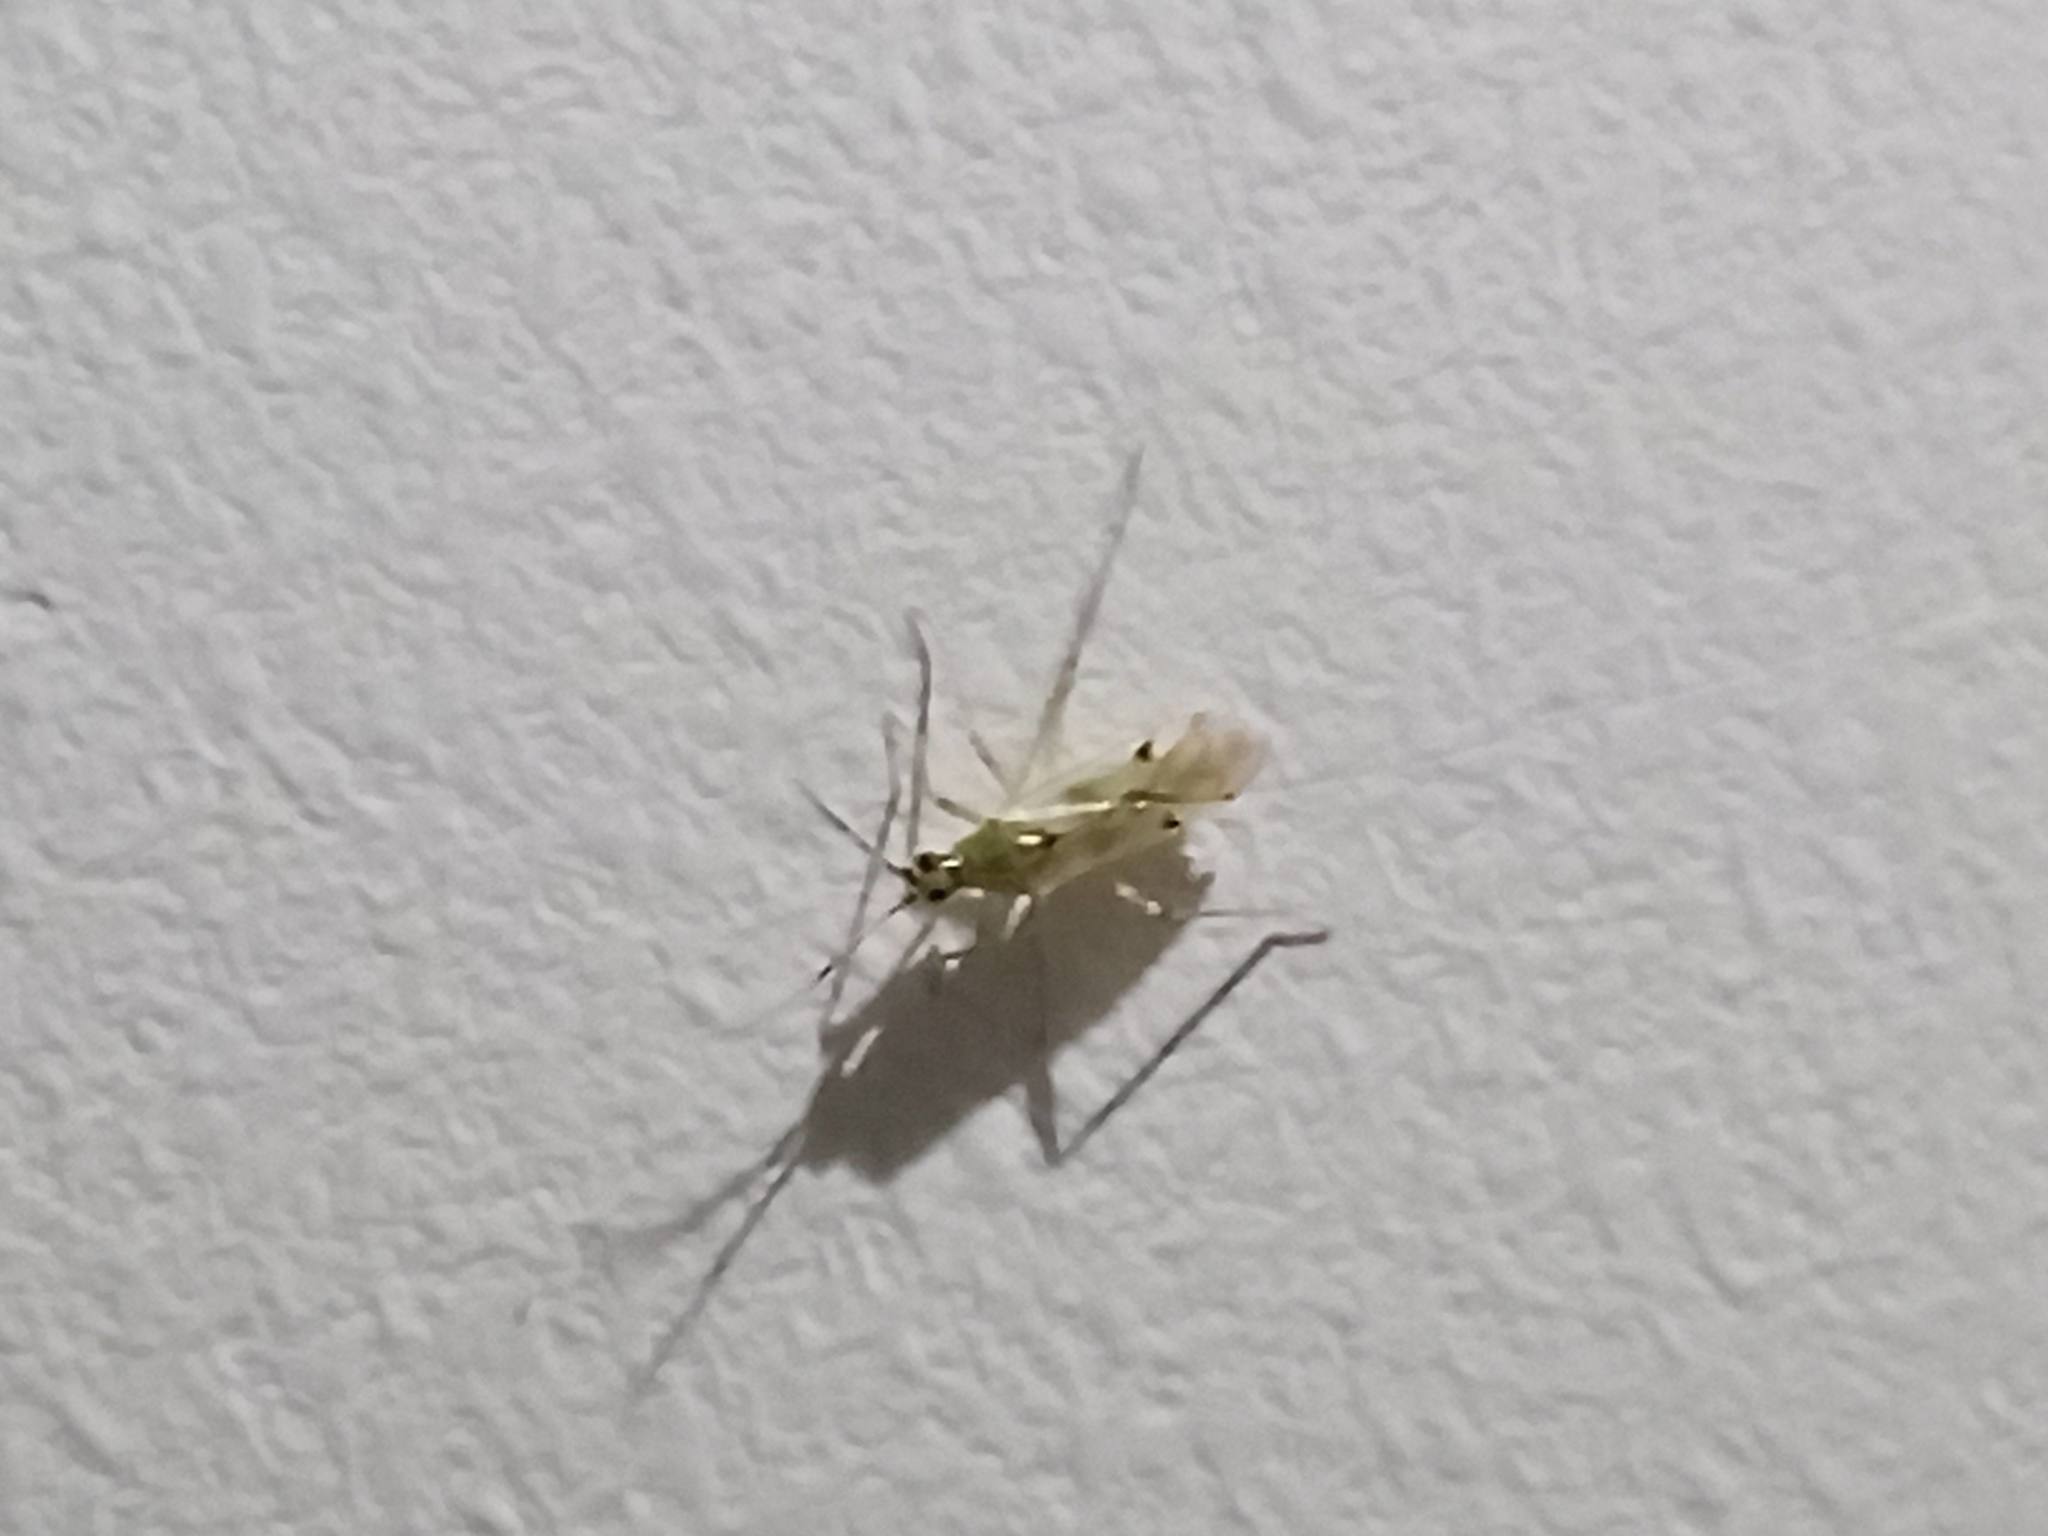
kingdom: Animalia
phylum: Arthropoda
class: Insecta
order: Hemiptera
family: Miridae
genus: Nesidiocoris
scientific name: Nesidiocoris tenuis
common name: Plant bug
